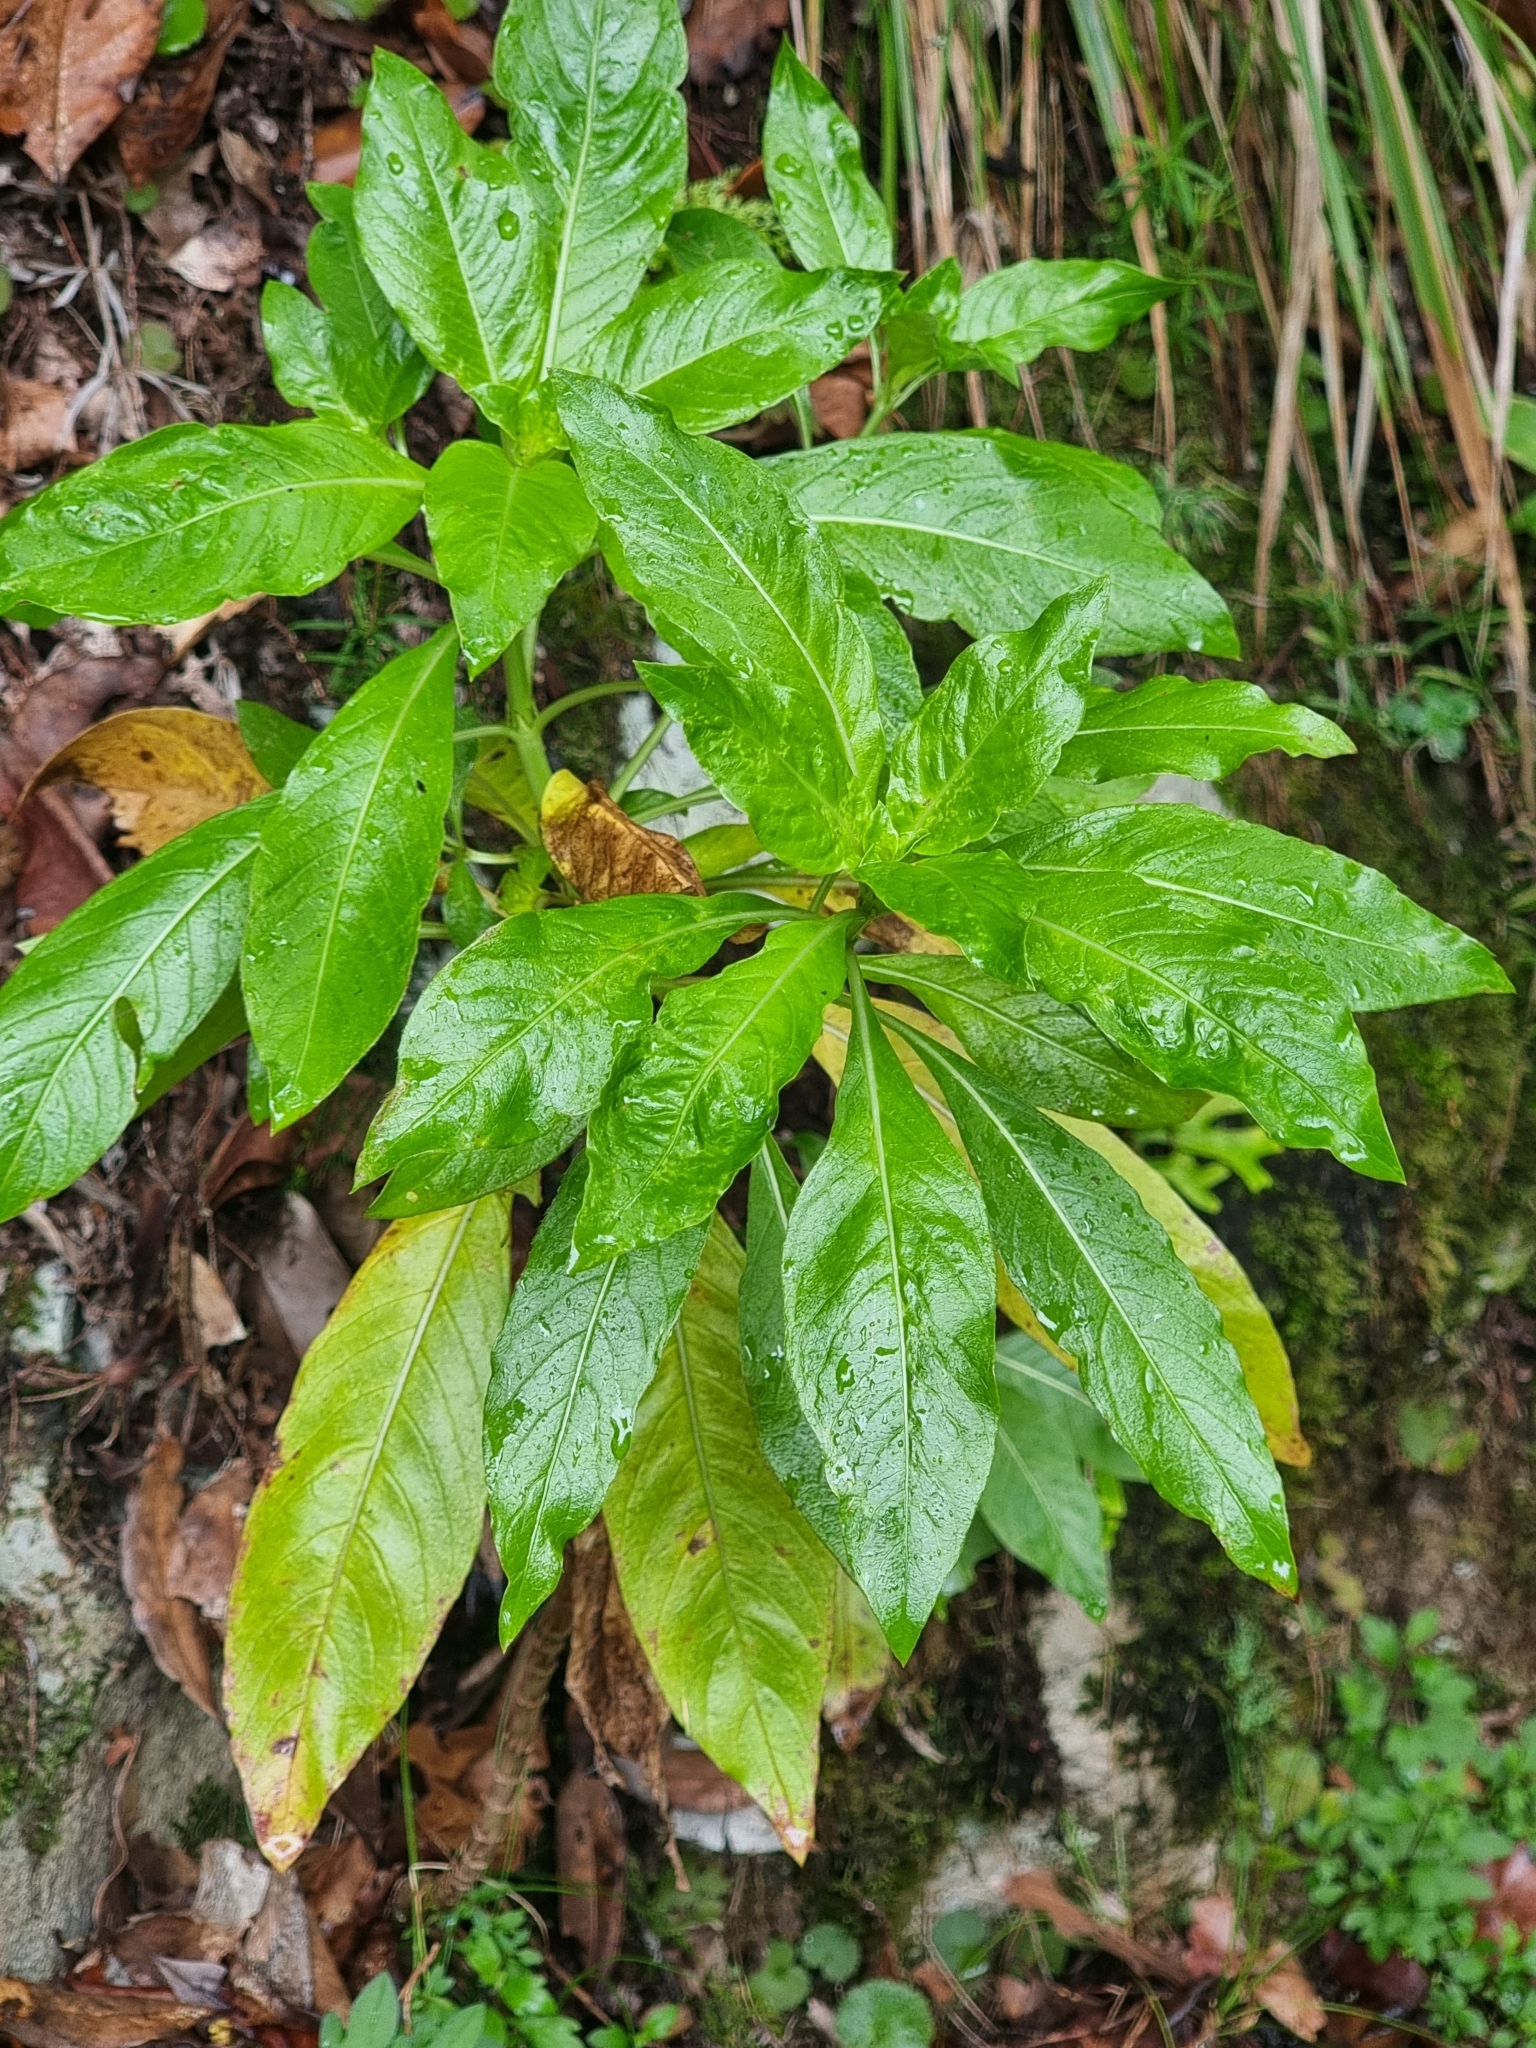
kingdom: Plantae
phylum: Tracheophyta
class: Magnoliopsida
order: Gentianales
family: Rubiaceae
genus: Phyllis
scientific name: Phyllis nobla
